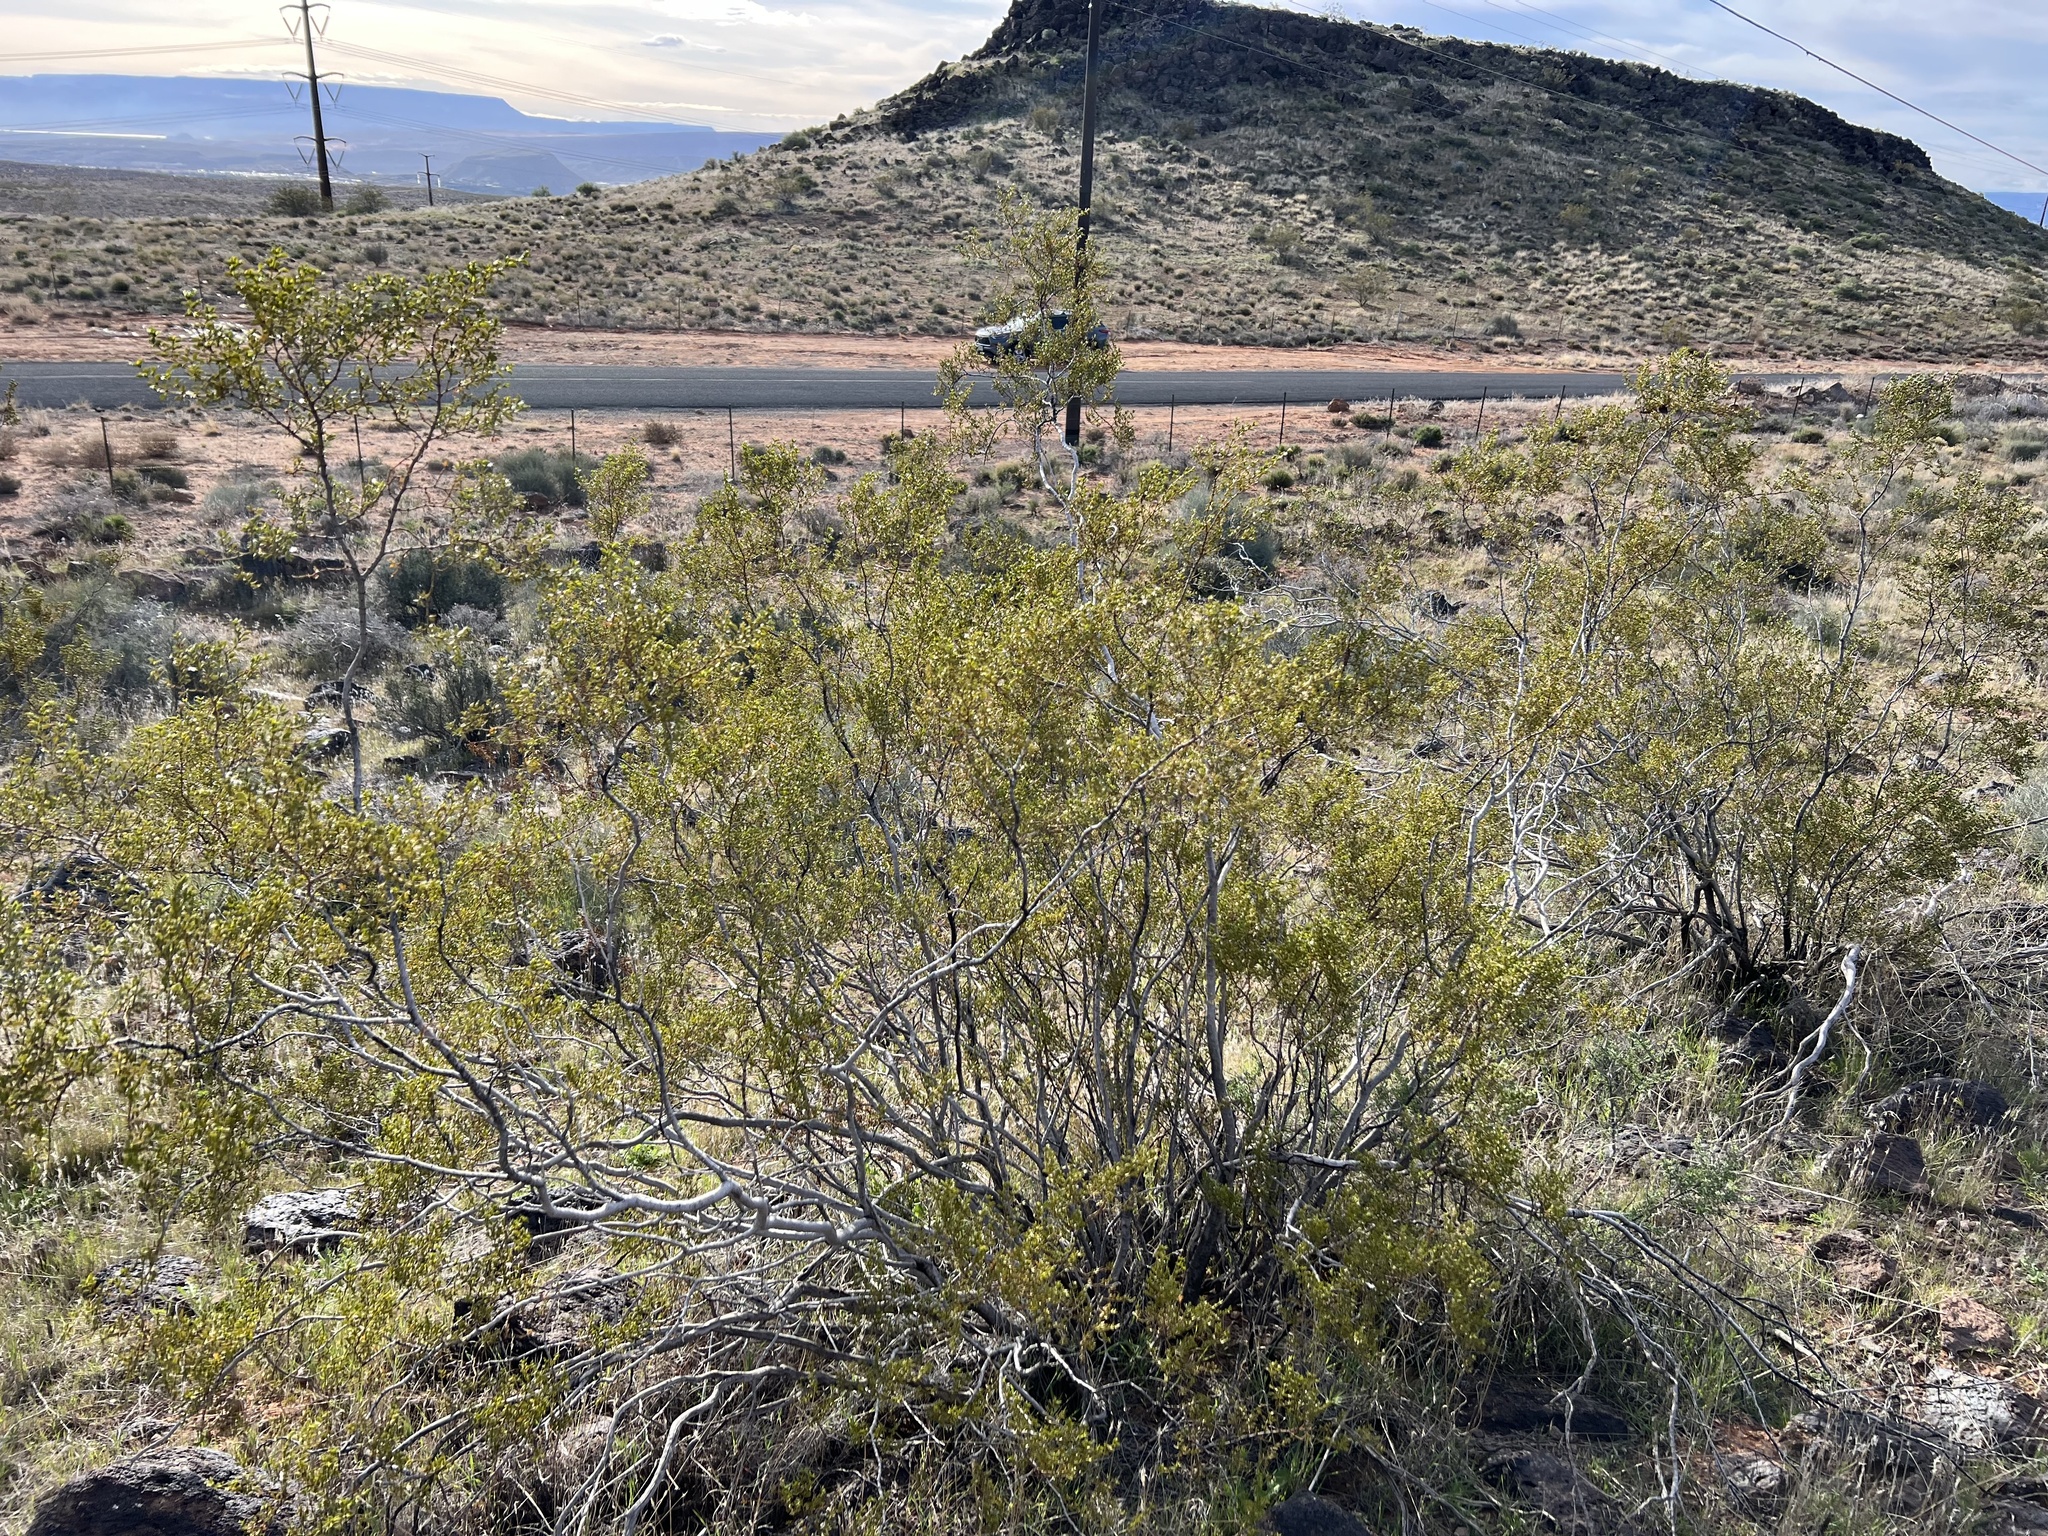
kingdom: Plantae
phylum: Tracheophyta
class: Magnoliopsida
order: Zygophyllales
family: Zygophyllaceae
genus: Larrea
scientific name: Larrea tridentata
